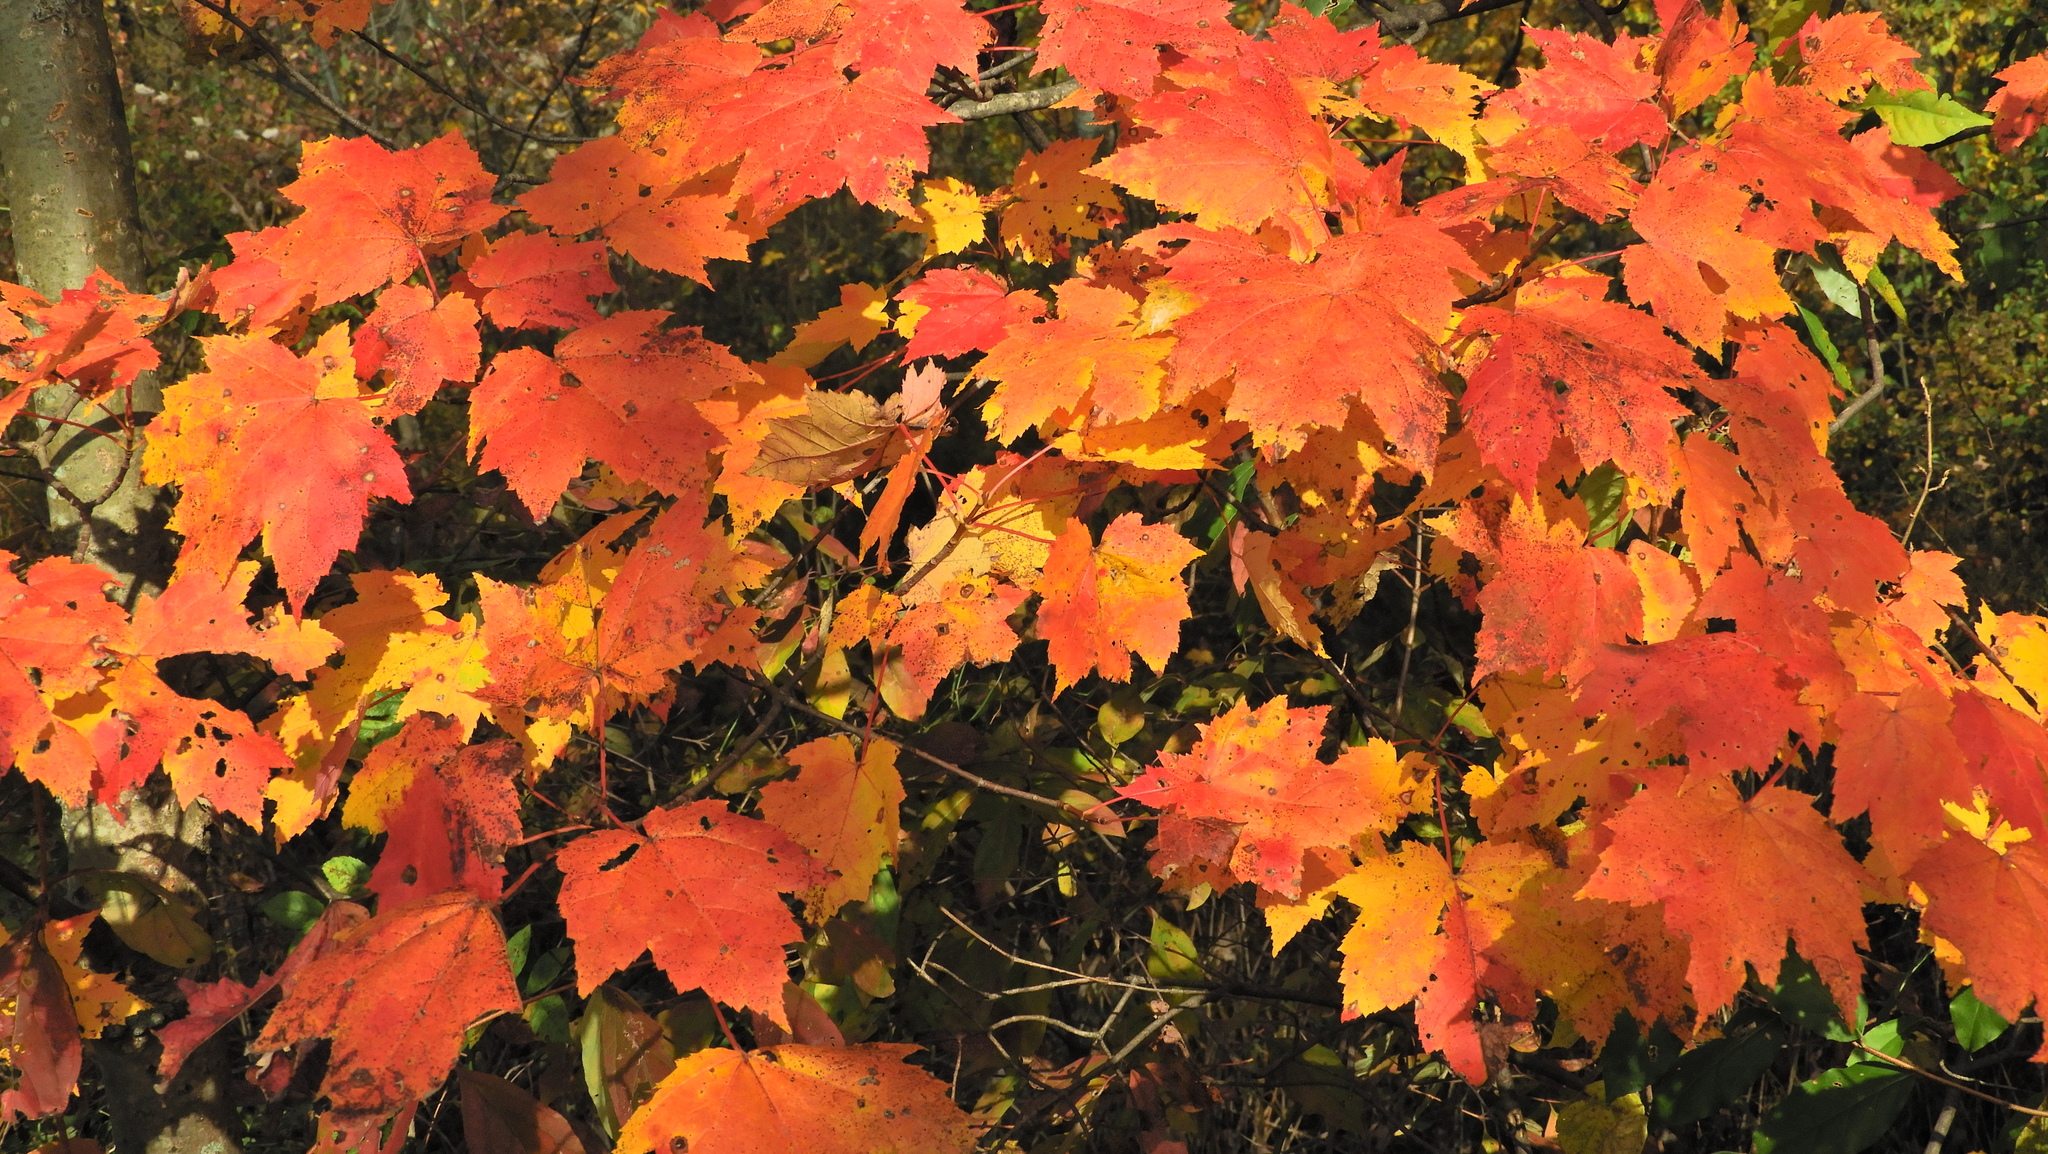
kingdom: Plantae
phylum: Tracheophyta
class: Magnoliopsida
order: Sapindales
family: Sapindaceae
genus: Acer
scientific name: Acer rubrum
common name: Red maple
